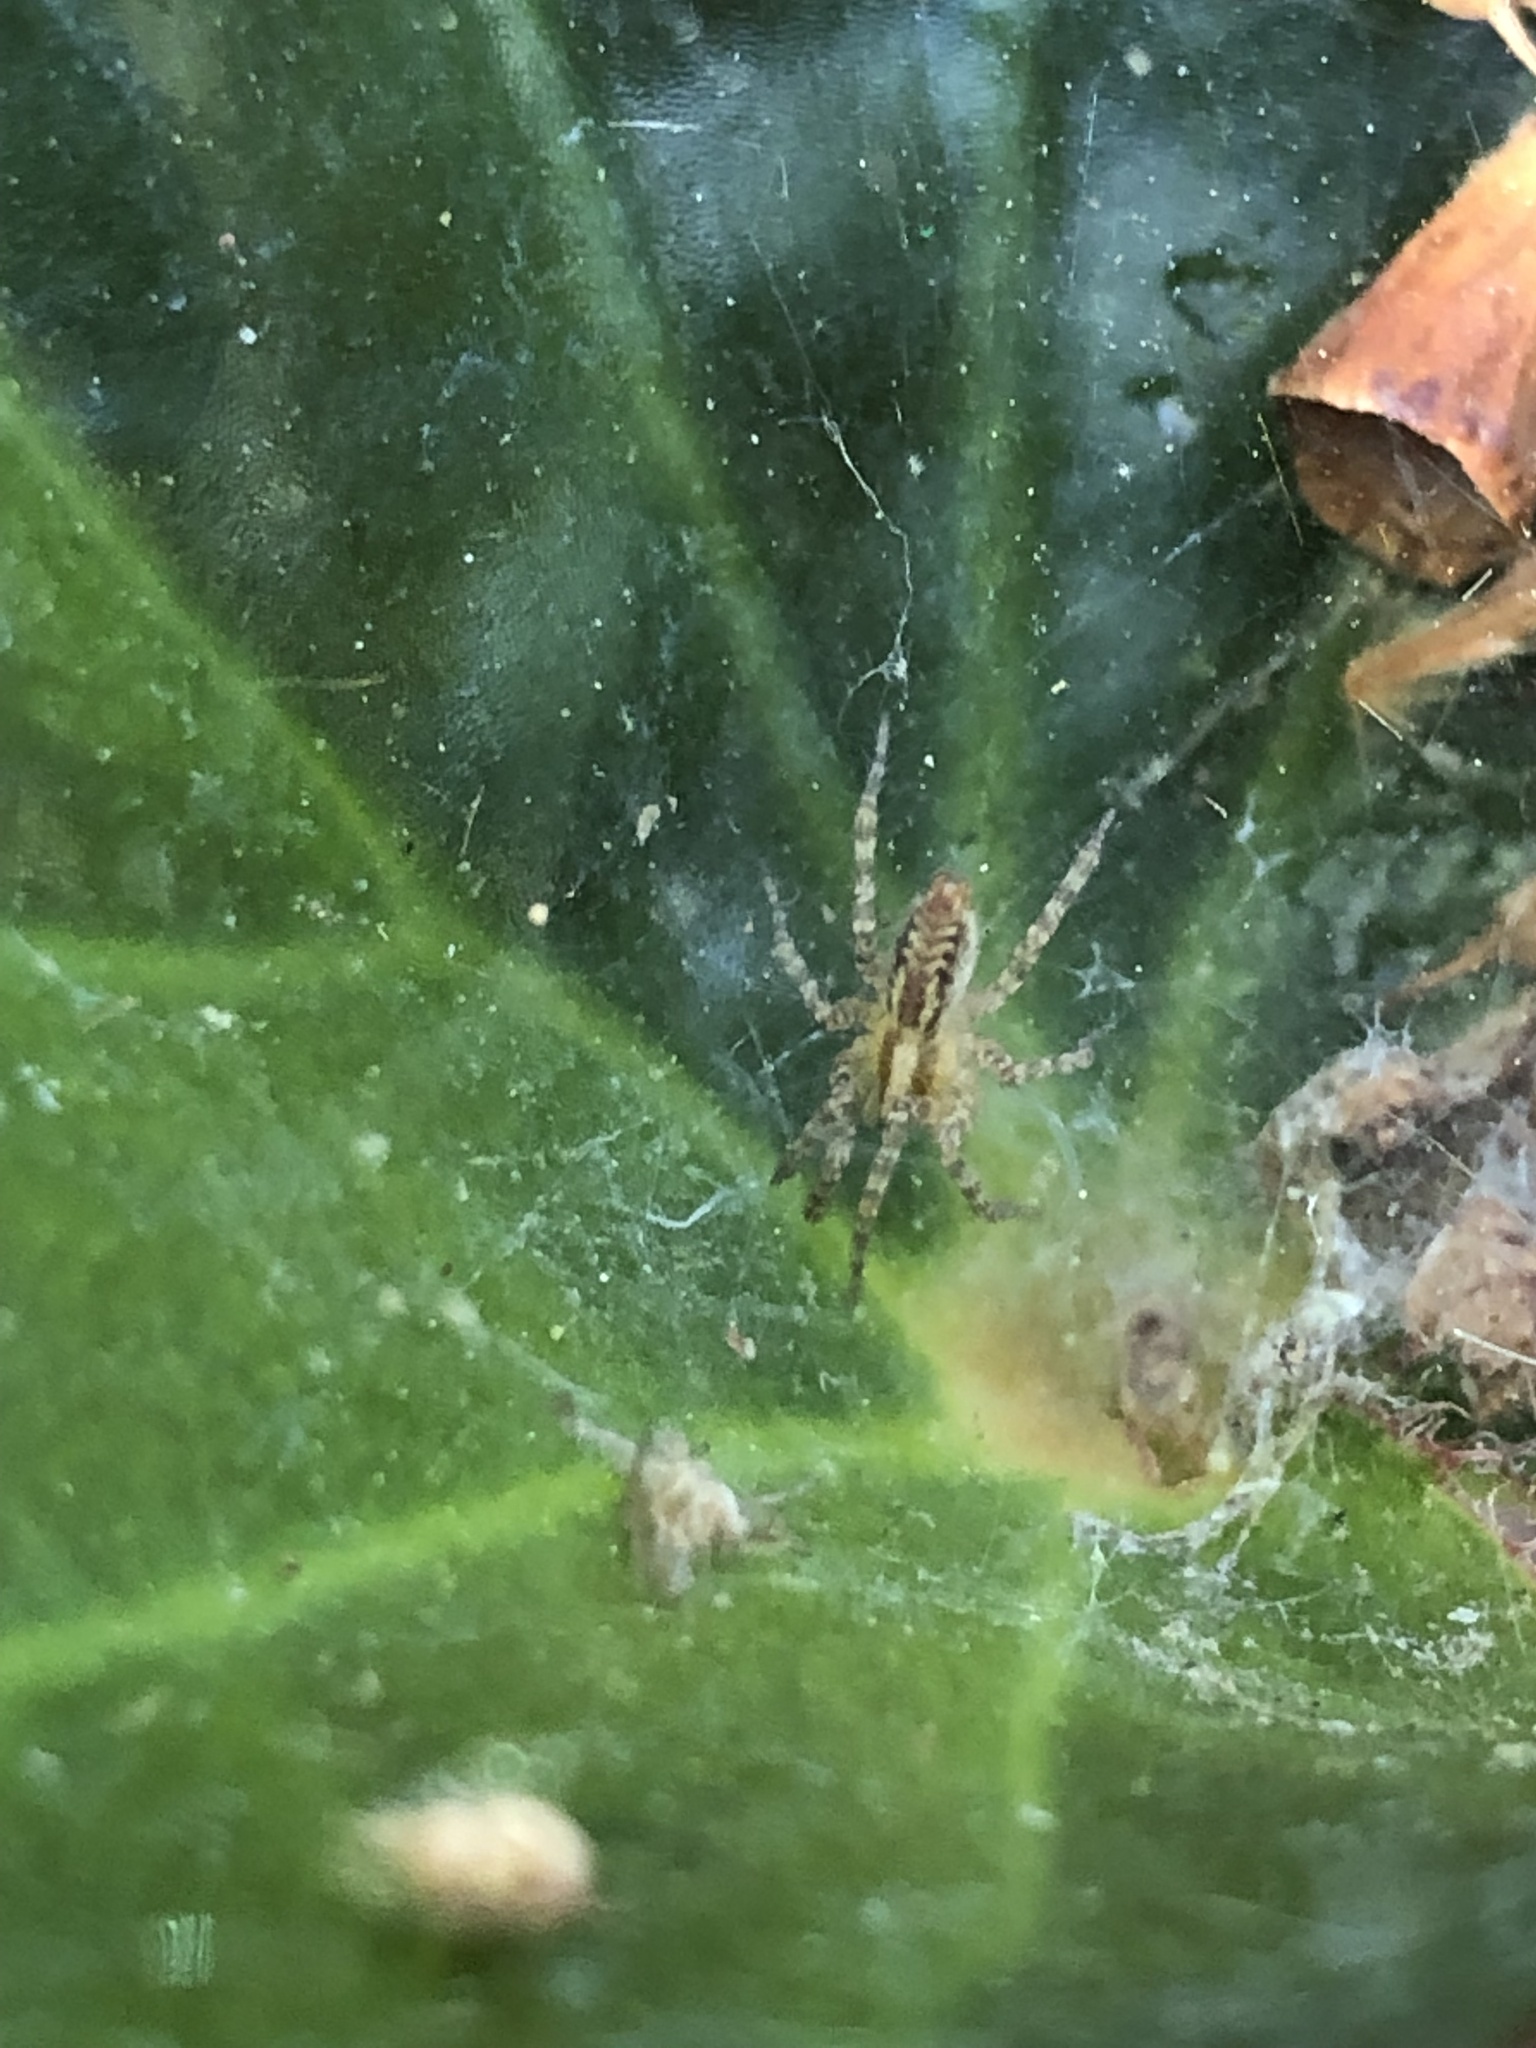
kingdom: Animalia
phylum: Arthropoda
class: Arachnida
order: Araneae
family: Agelenidae
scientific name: Agelenidae
